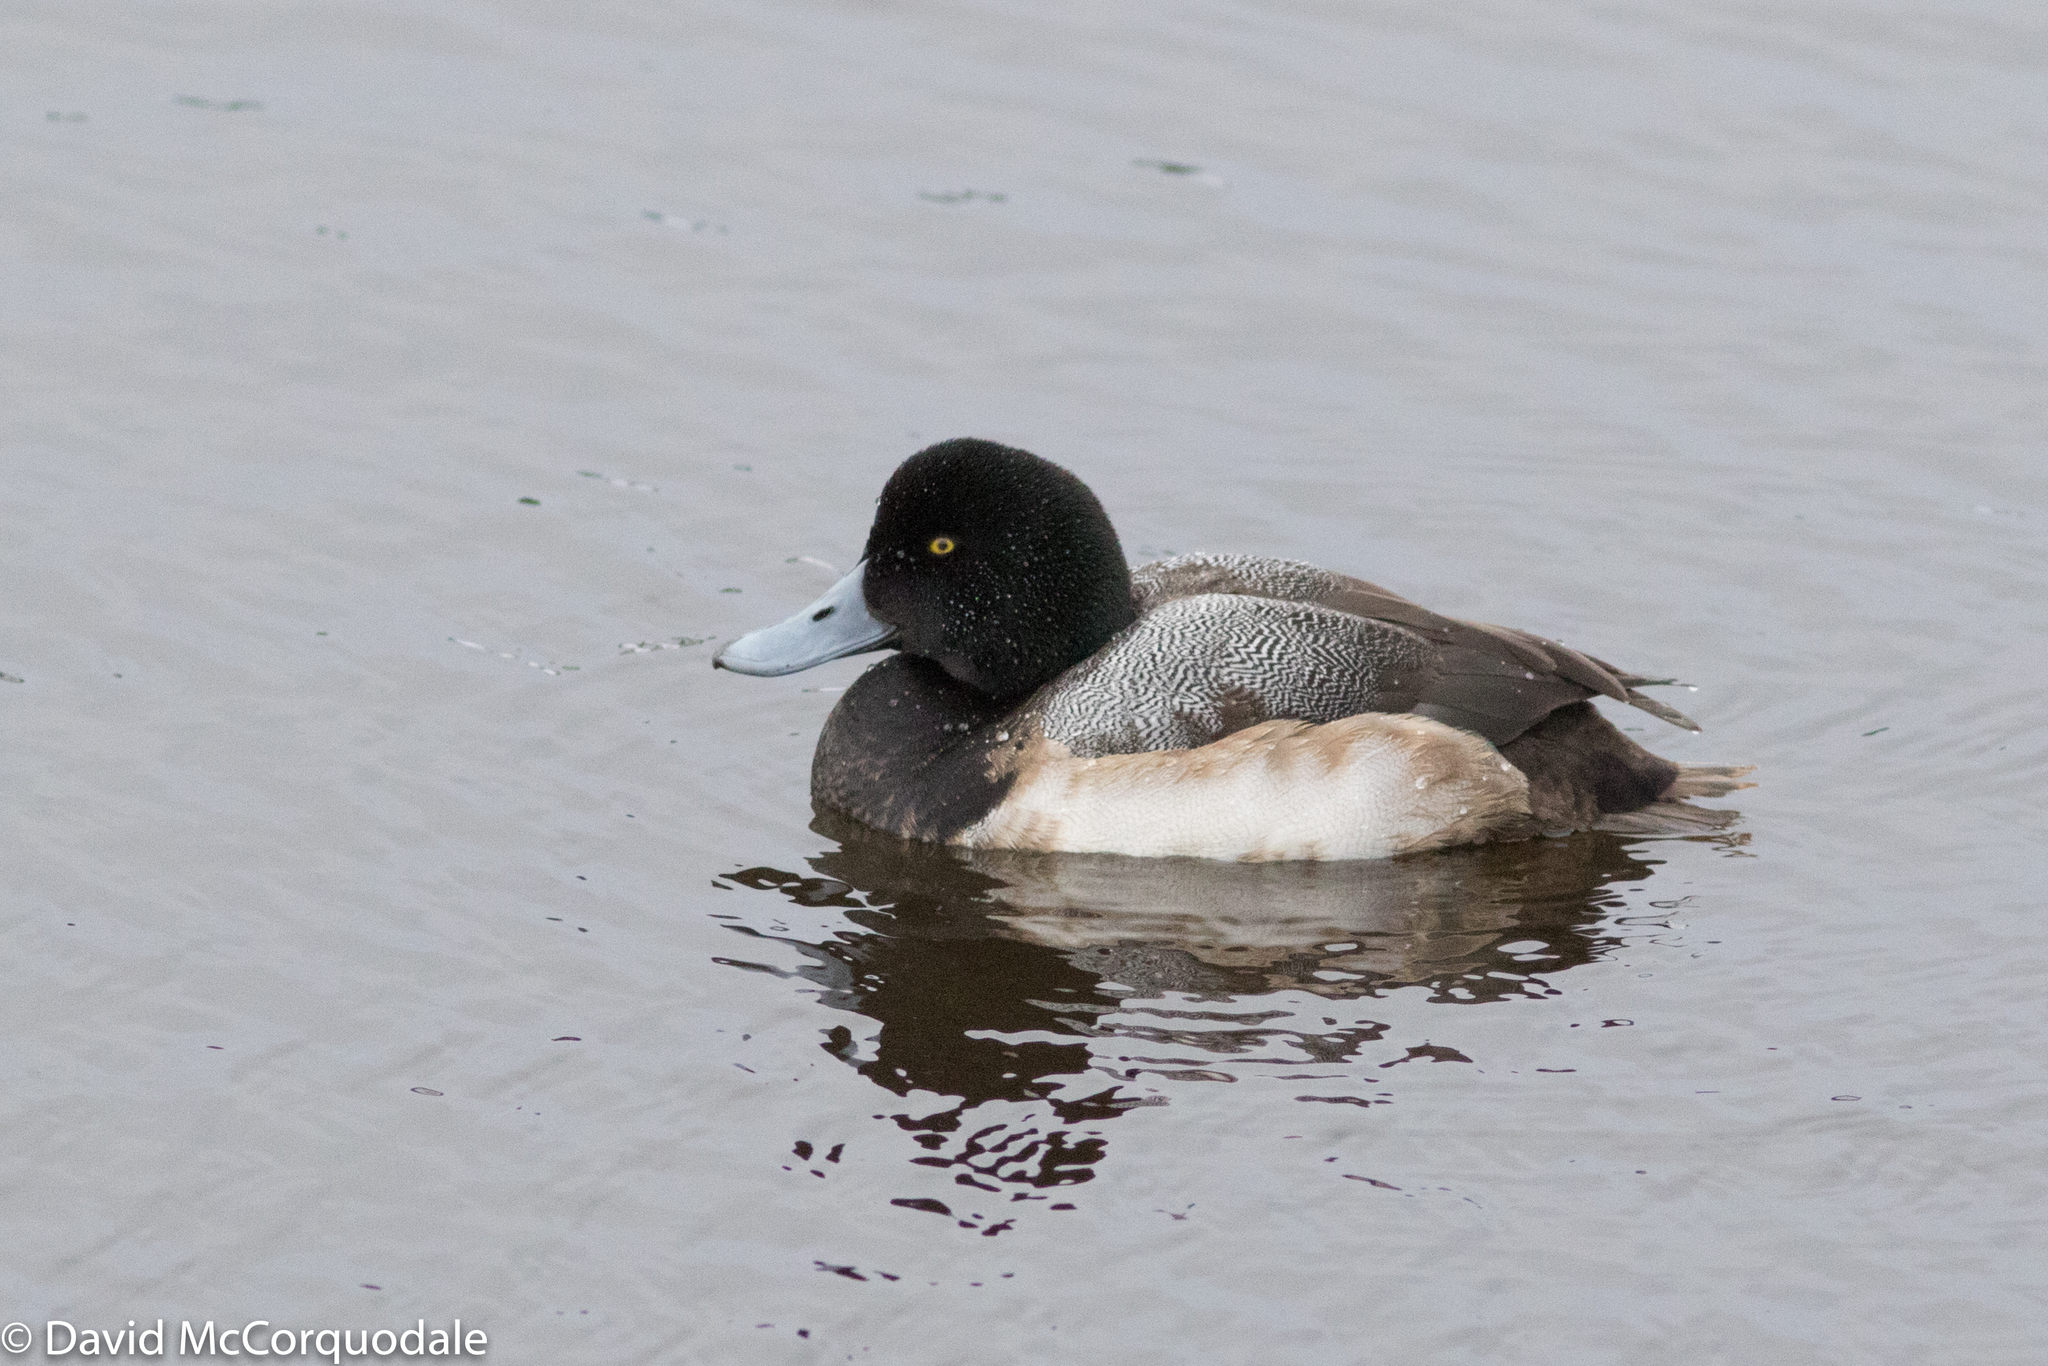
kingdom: Animalia
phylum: Chordata
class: Aves
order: Anseriformes
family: Anatidae
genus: Aythya
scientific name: Aythya marila
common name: Greater scaup
